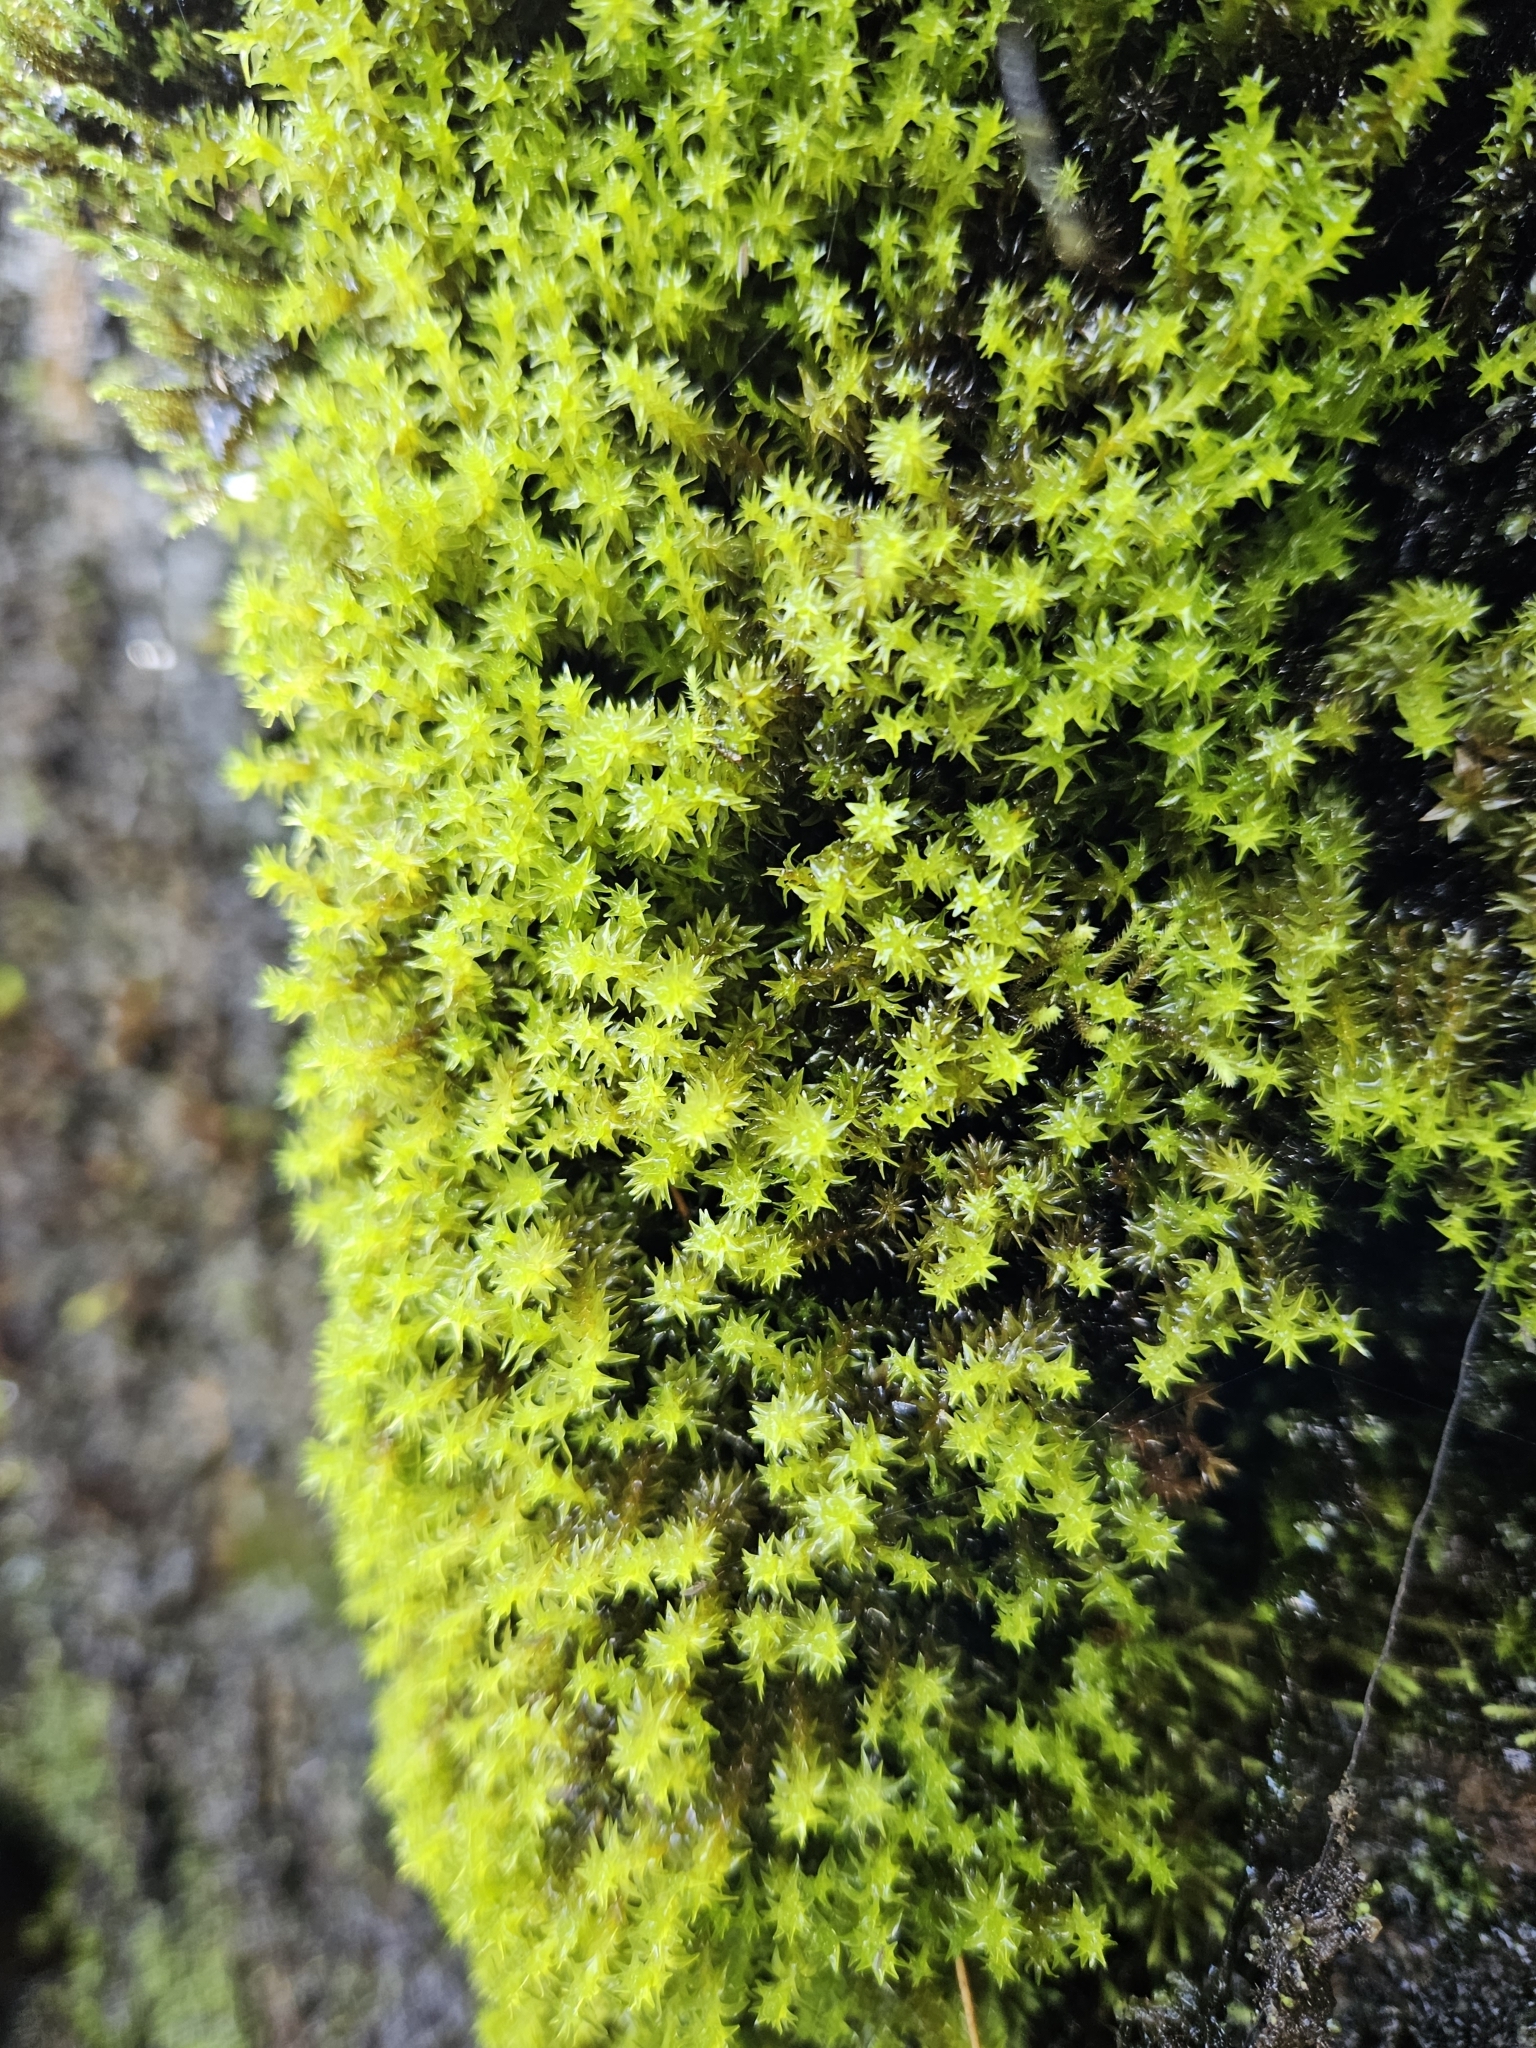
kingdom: Plantae
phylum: Bryophyta
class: Bryopsida
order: Dicranales
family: Aongstroemiaceae
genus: Diobelonella
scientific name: Diobelonella palustris
